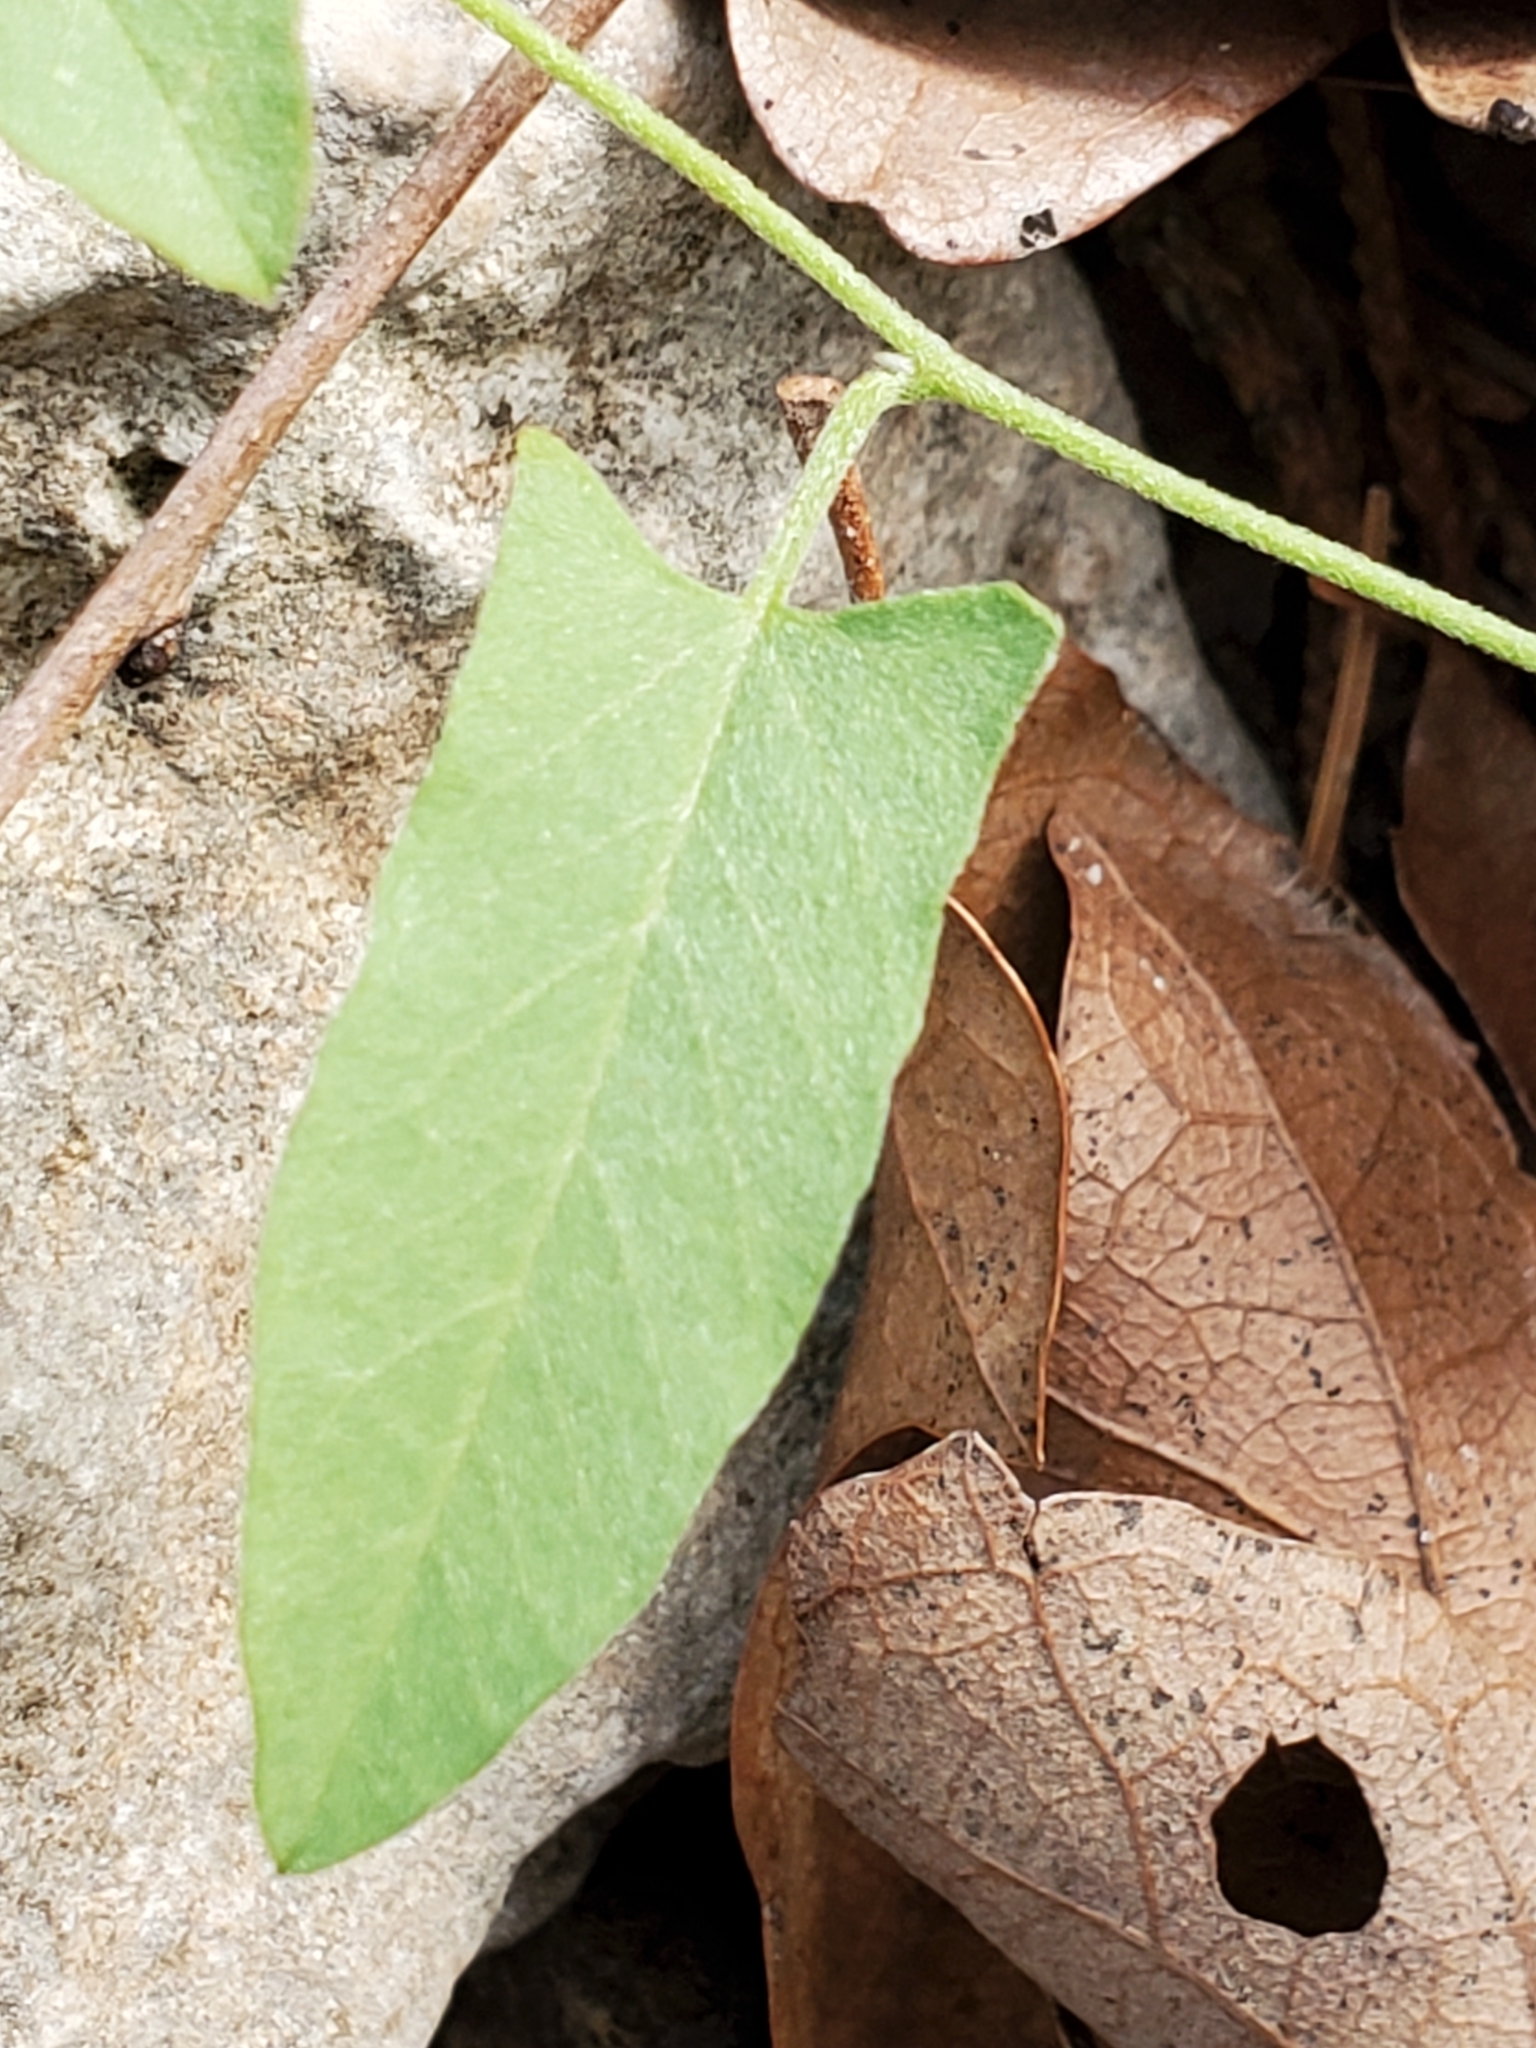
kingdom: Plantae
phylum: Tracheophyta
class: Magnoliopsida
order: Solanales
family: Convolvulaceae
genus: Convolvulus
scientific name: Convolvulus equitans
